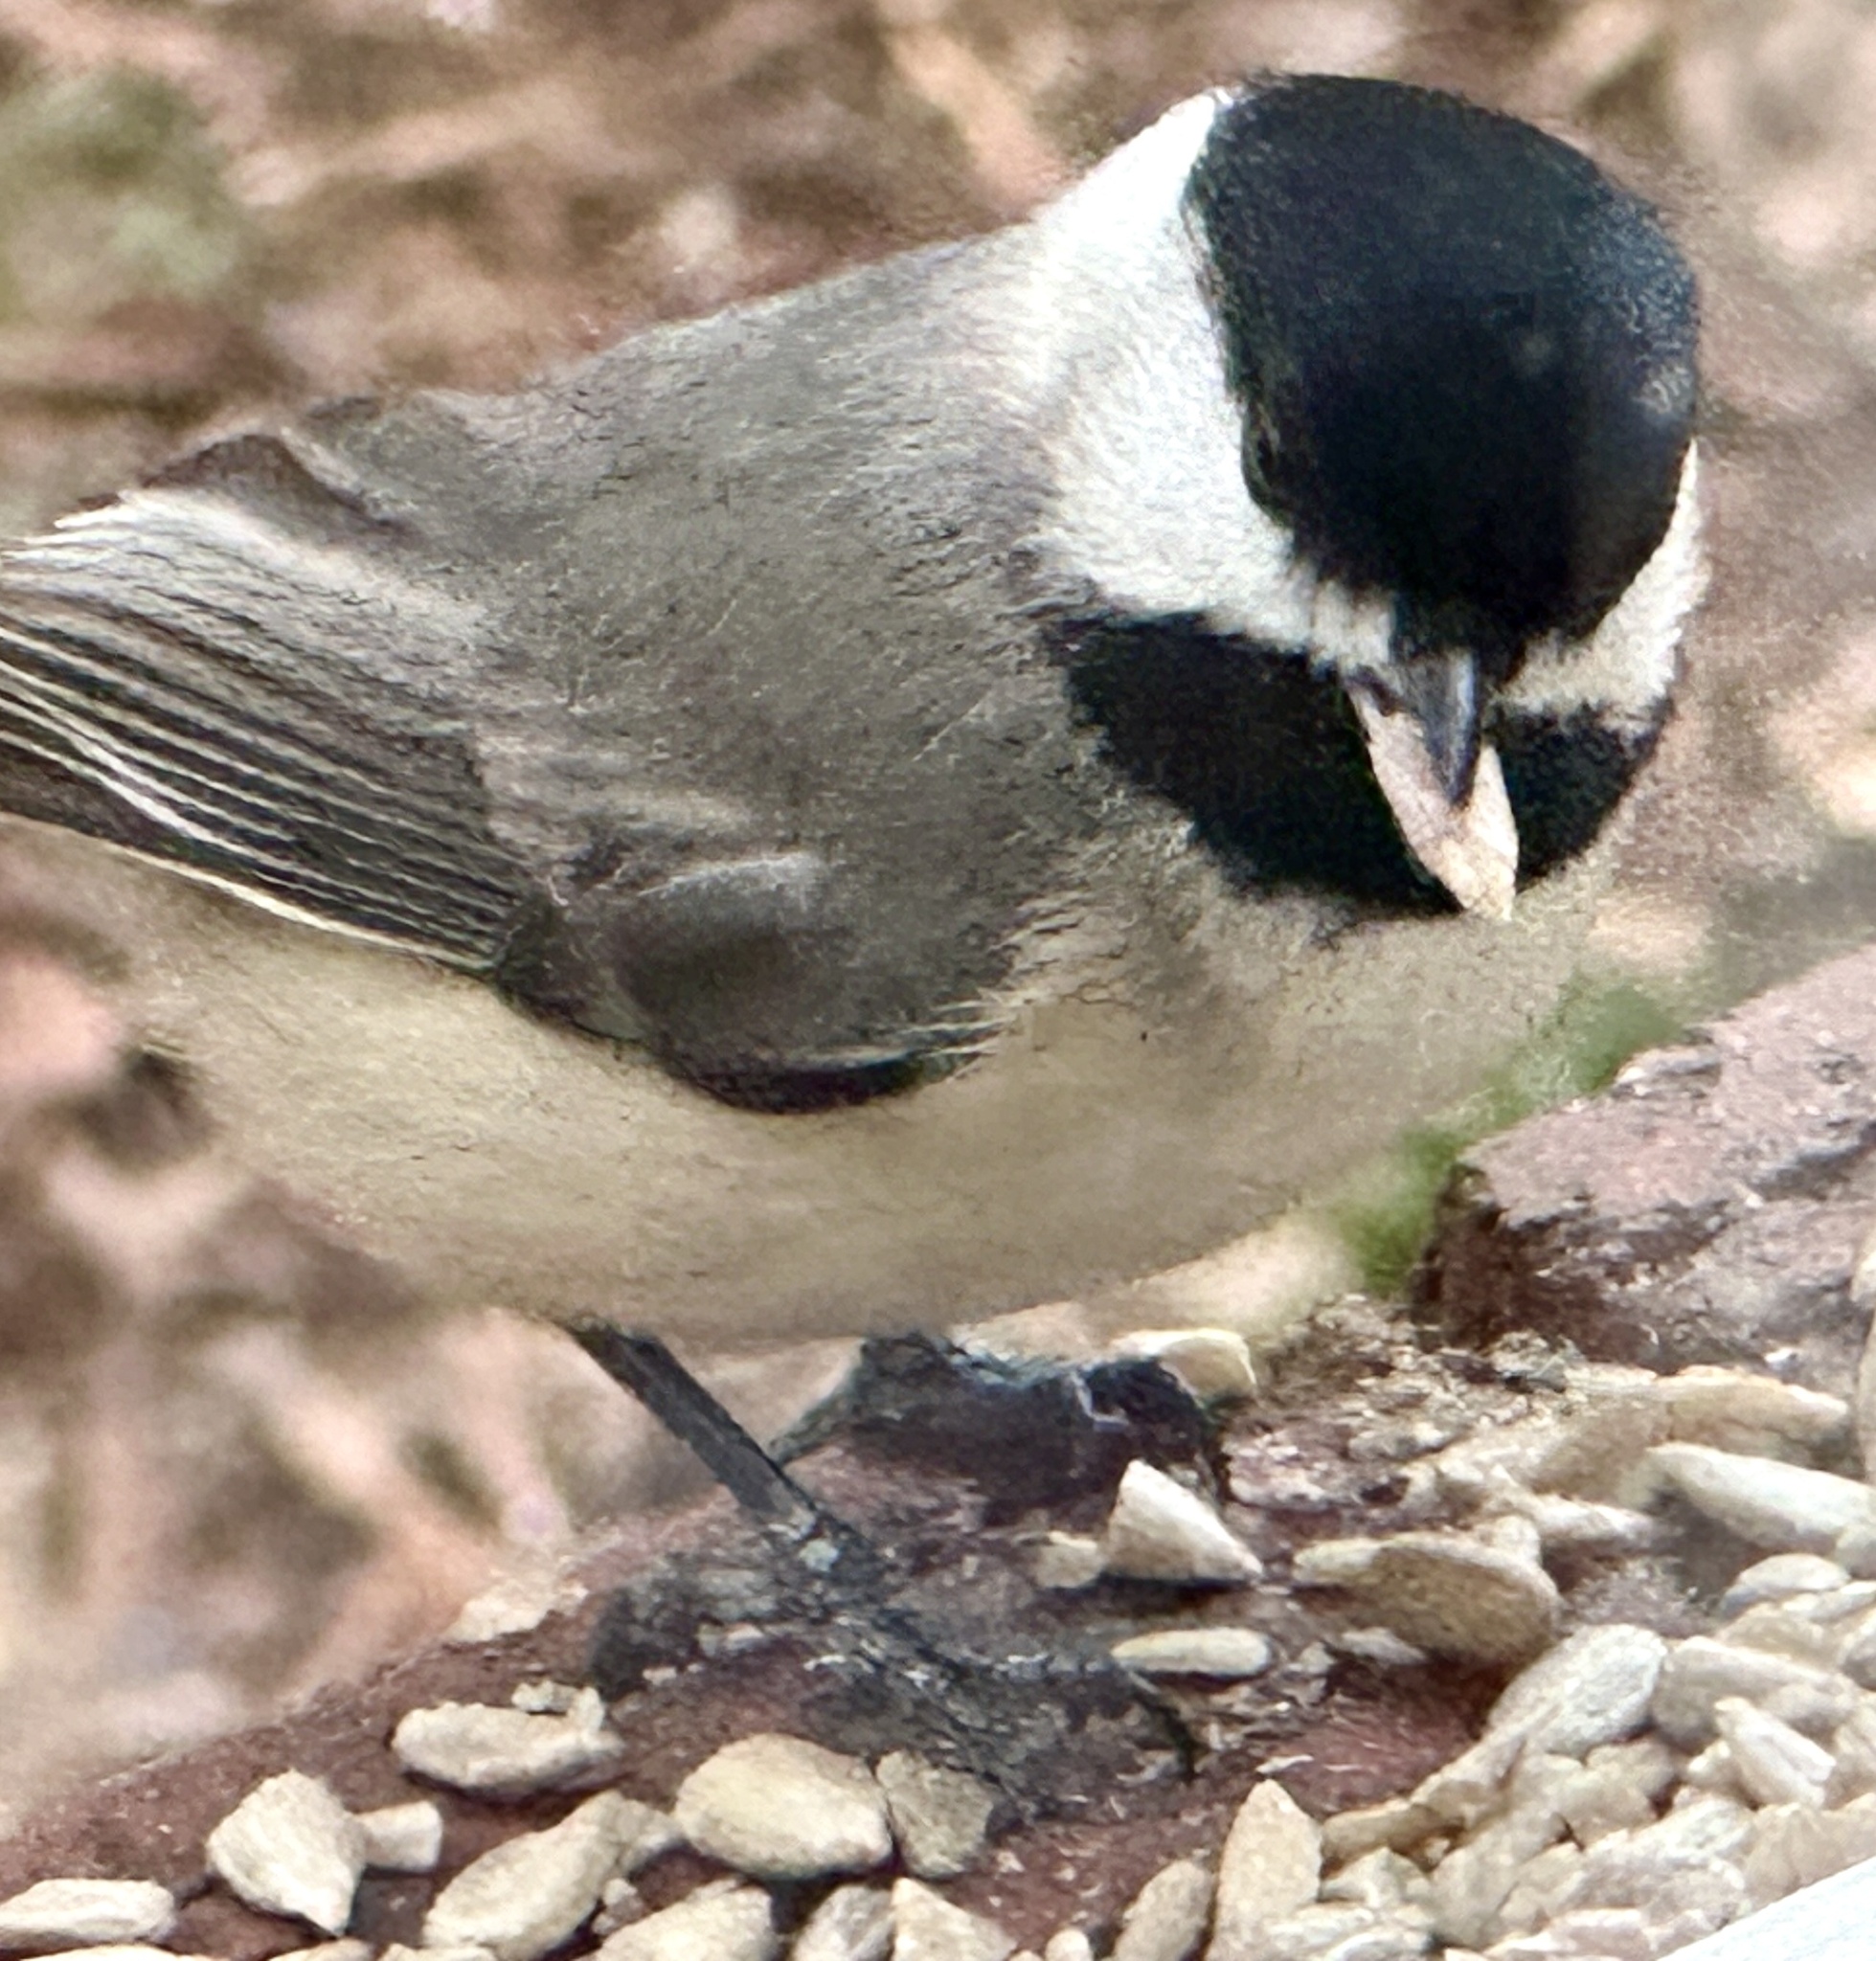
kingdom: Animalia
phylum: Chordata
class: Aves
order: Passeriformes
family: Paridae
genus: Poecile
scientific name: Poecile carolinensis
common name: Carolina chickadee
